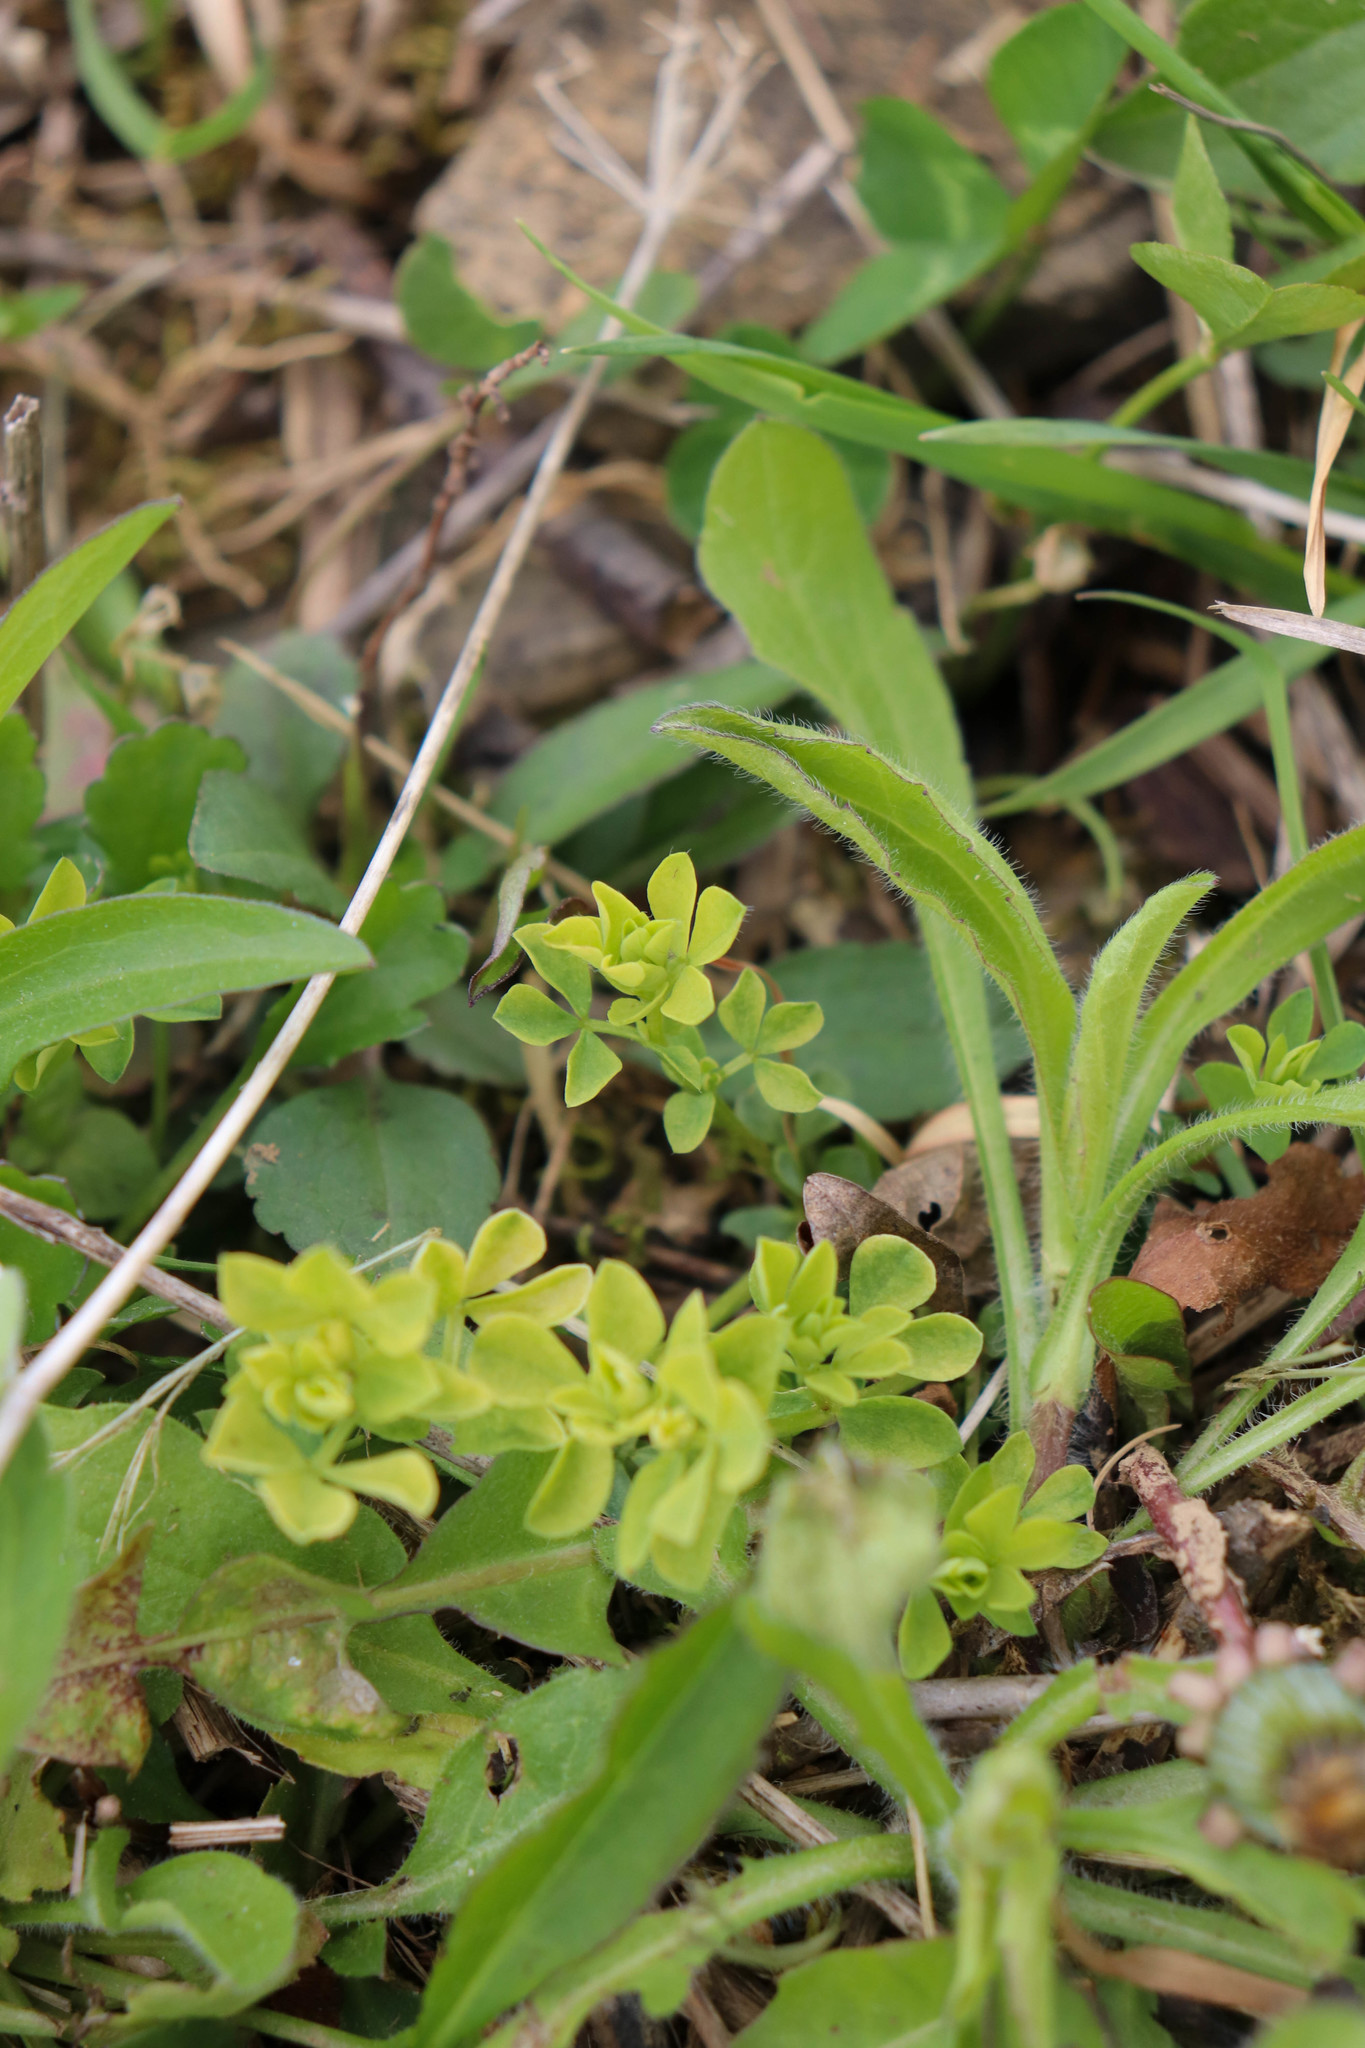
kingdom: Plantae
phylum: Tracheophyta
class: Magnoliopsida
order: Fabales
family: Fabaceae
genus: Lotus
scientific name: Lotus corniculatus
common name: Common bird's-foot-trefoil
